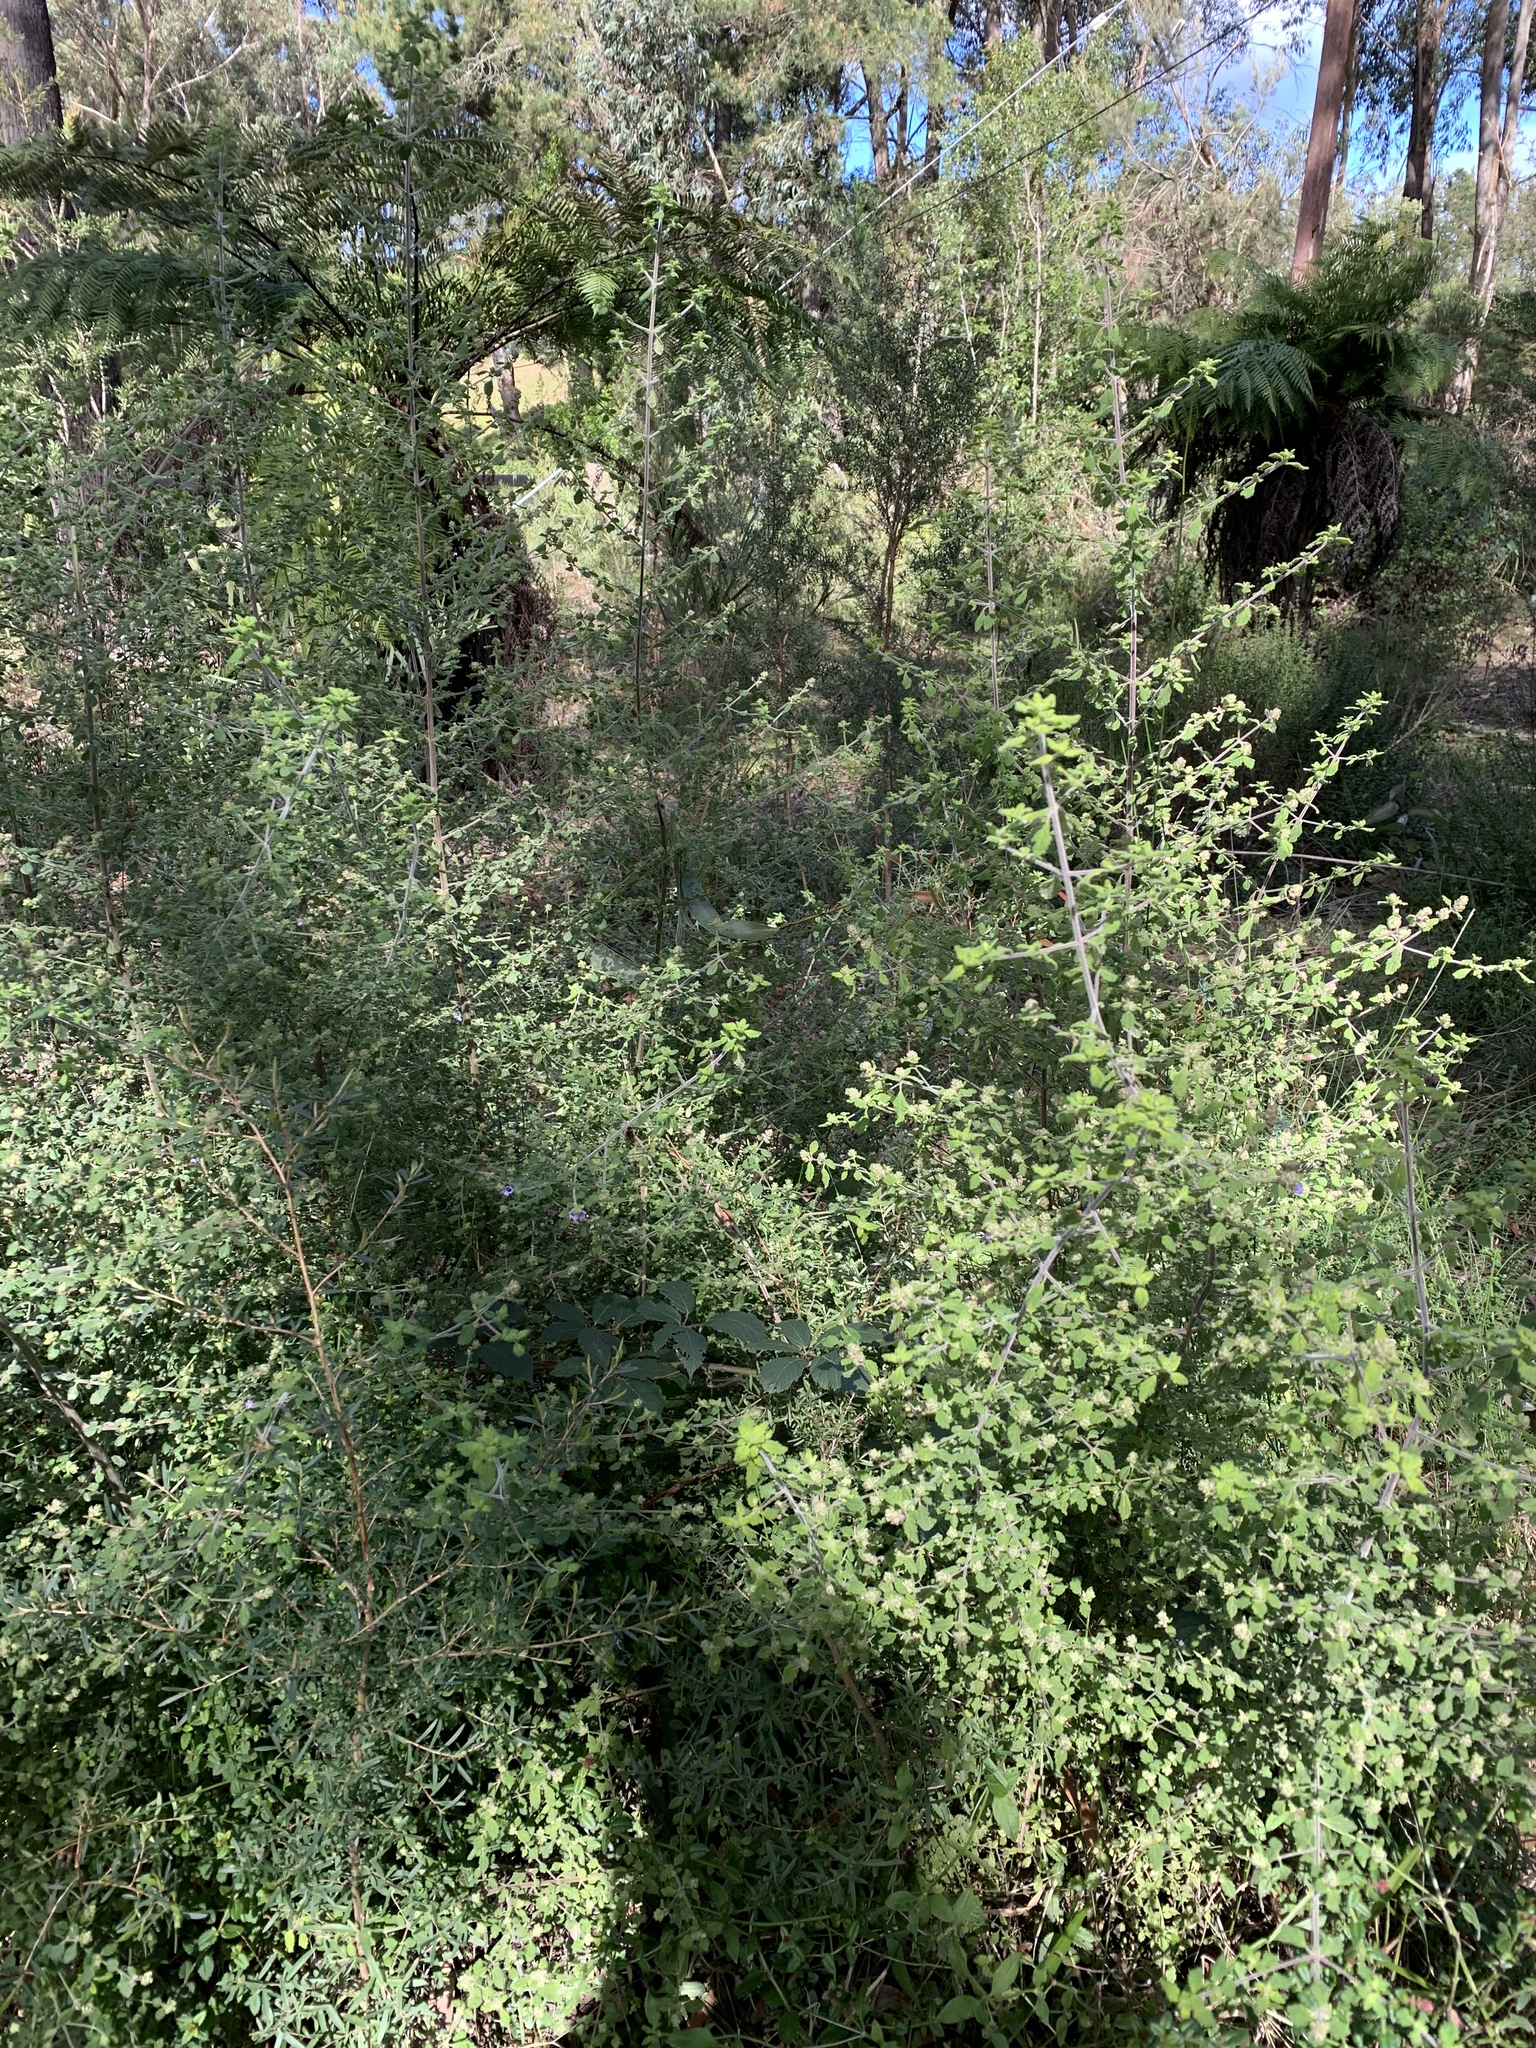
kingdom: Plantae
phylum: Tracheophyta
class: Magnoliopsida
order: Lamiales
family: Lamiaceae
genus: Prostanthera
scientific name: Prostanthera incana
